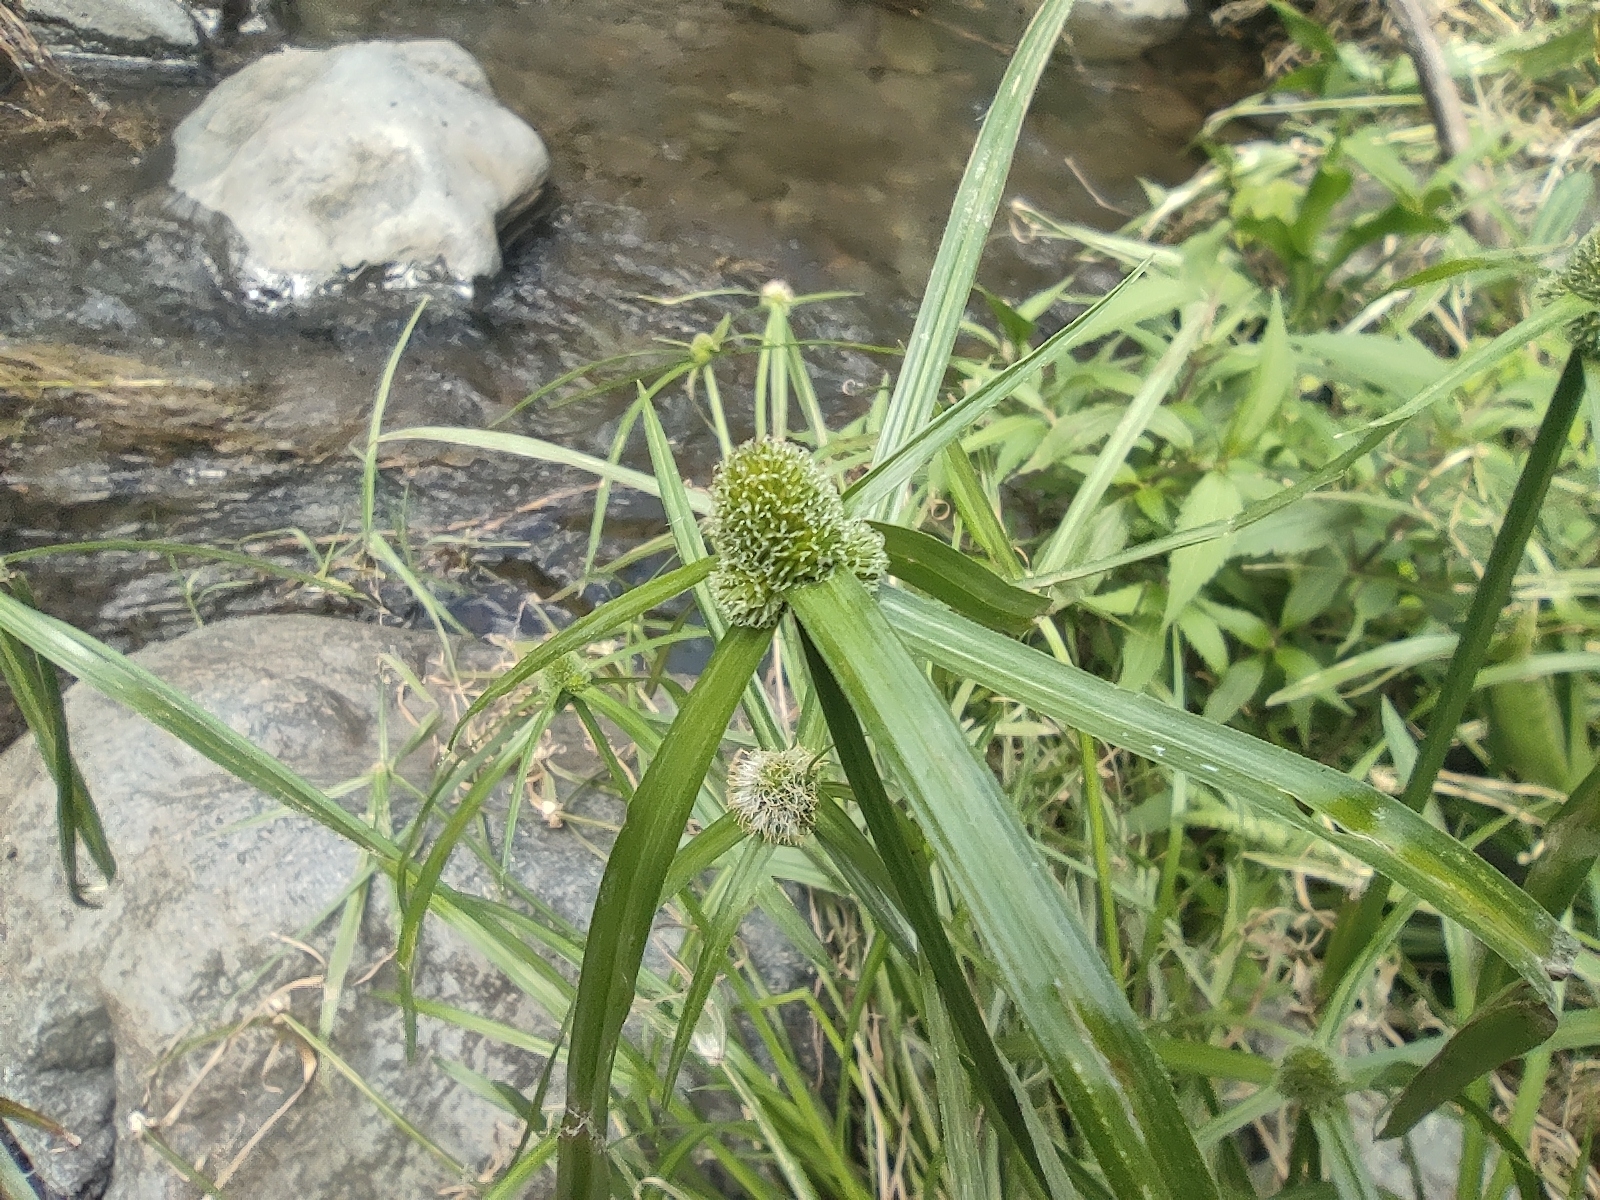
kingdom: Plantae
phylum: Tracheophyta
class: Liliopsida
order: Poales
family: Cyperaceae
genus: Cyperus
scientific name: Cyperus aromaticus
